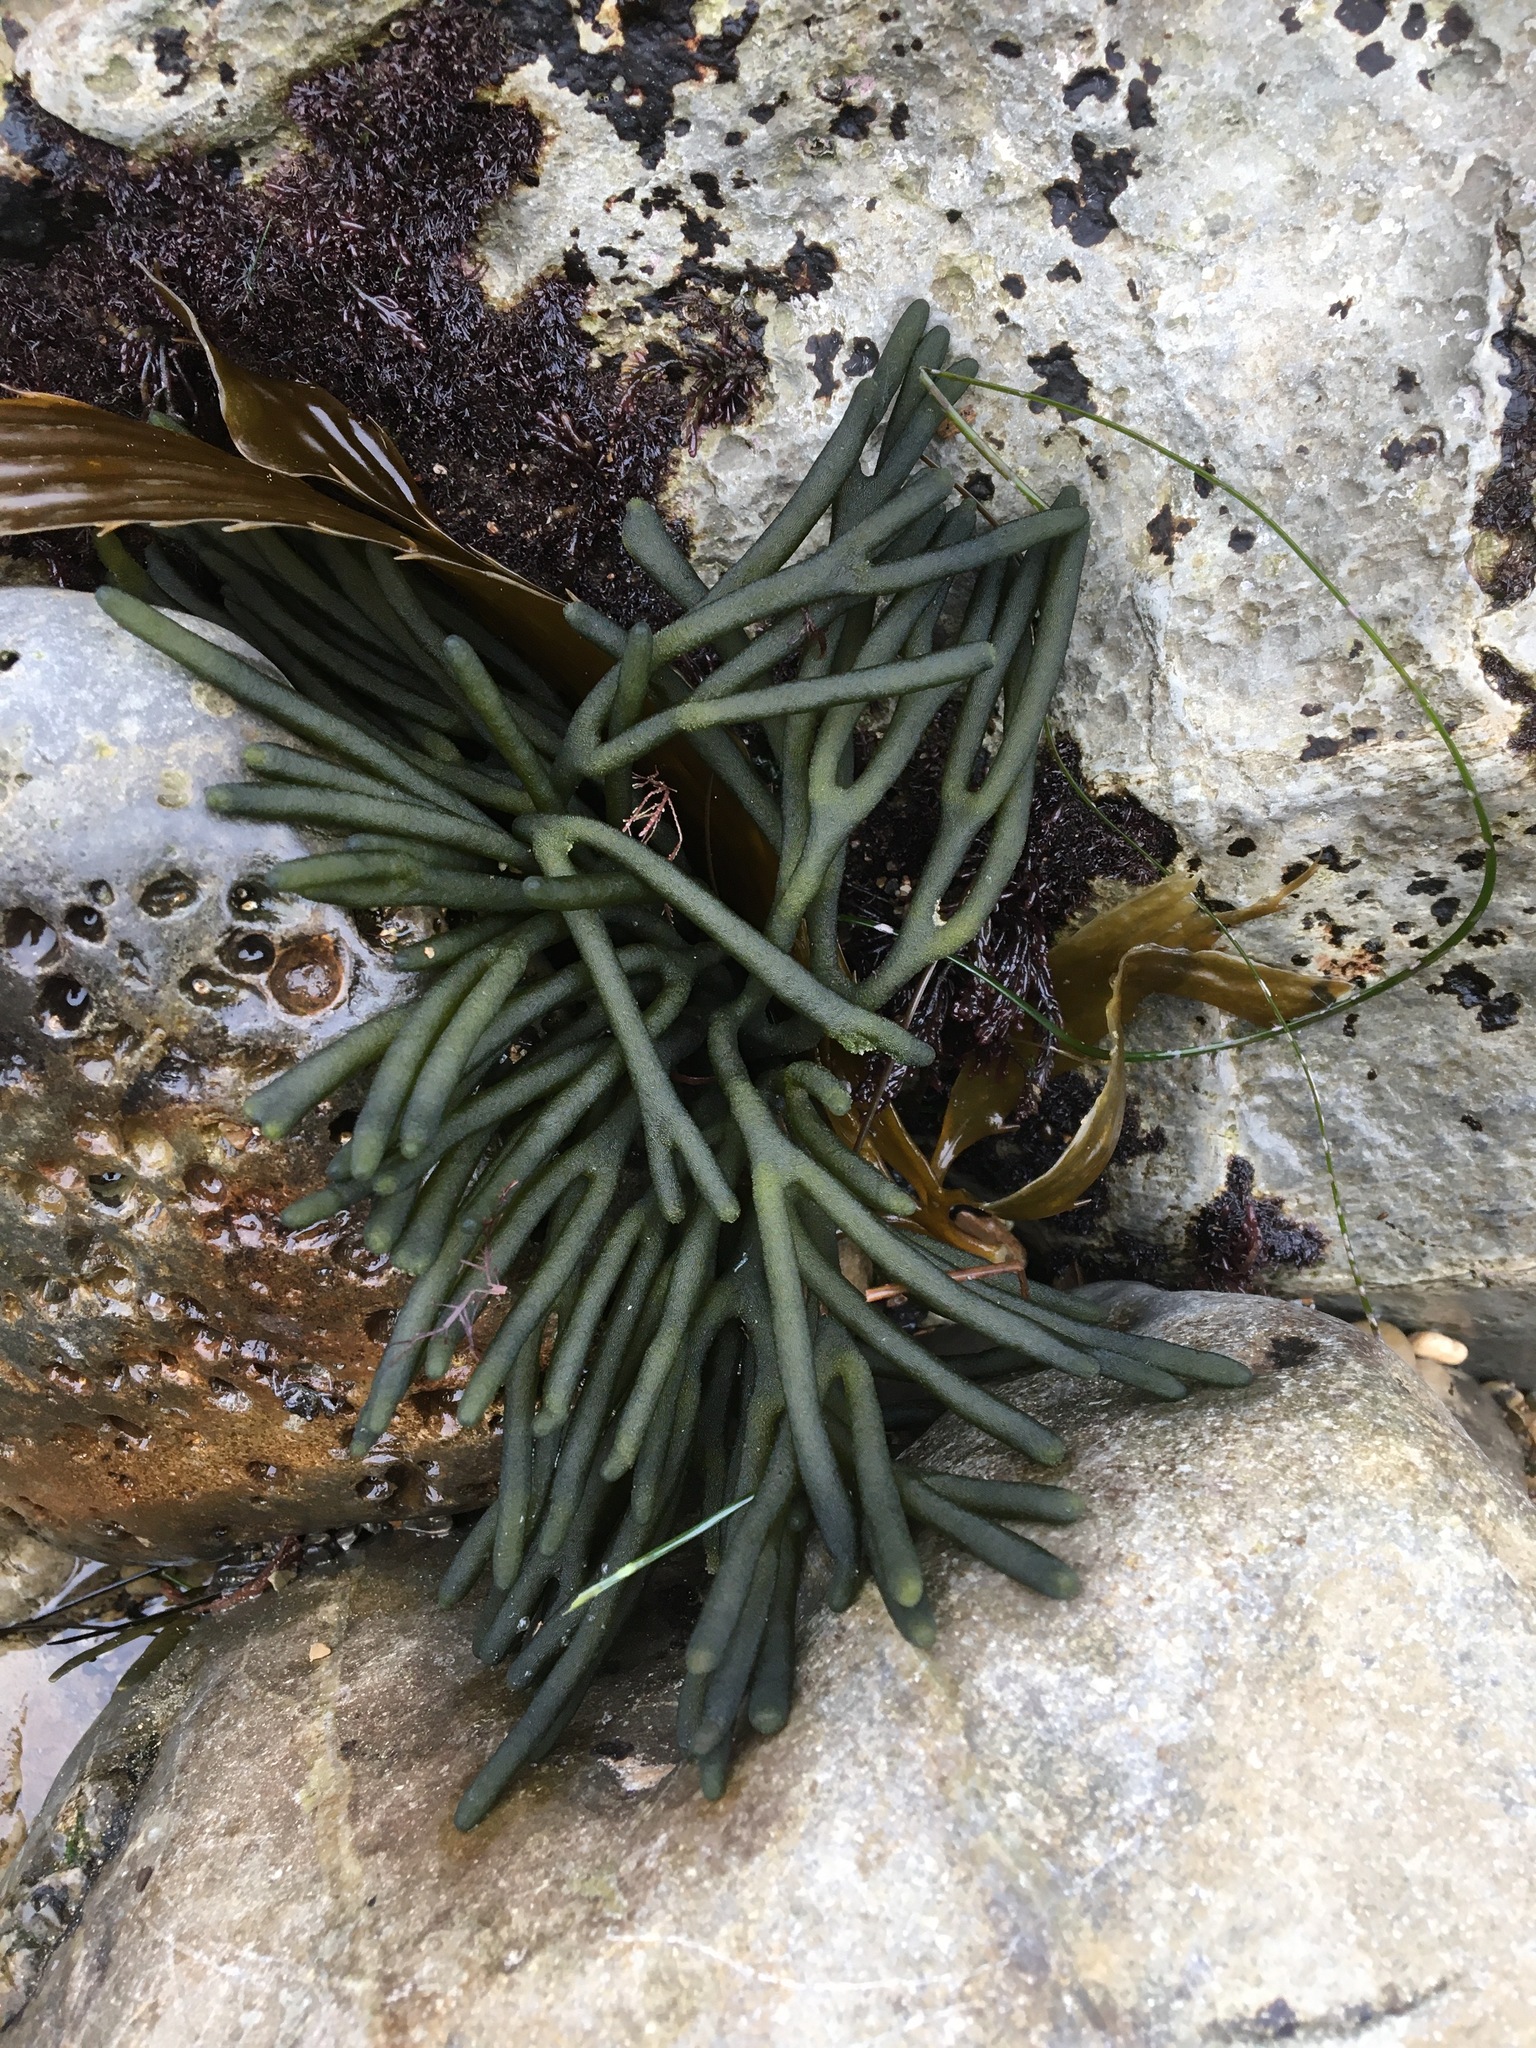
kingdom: Plantae
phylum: Chlorophyta
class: Ulvophyceae
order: Bryopsidales
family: Codiaceae
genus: Codium
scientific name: Codium fragile
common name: Dead man's fingers
